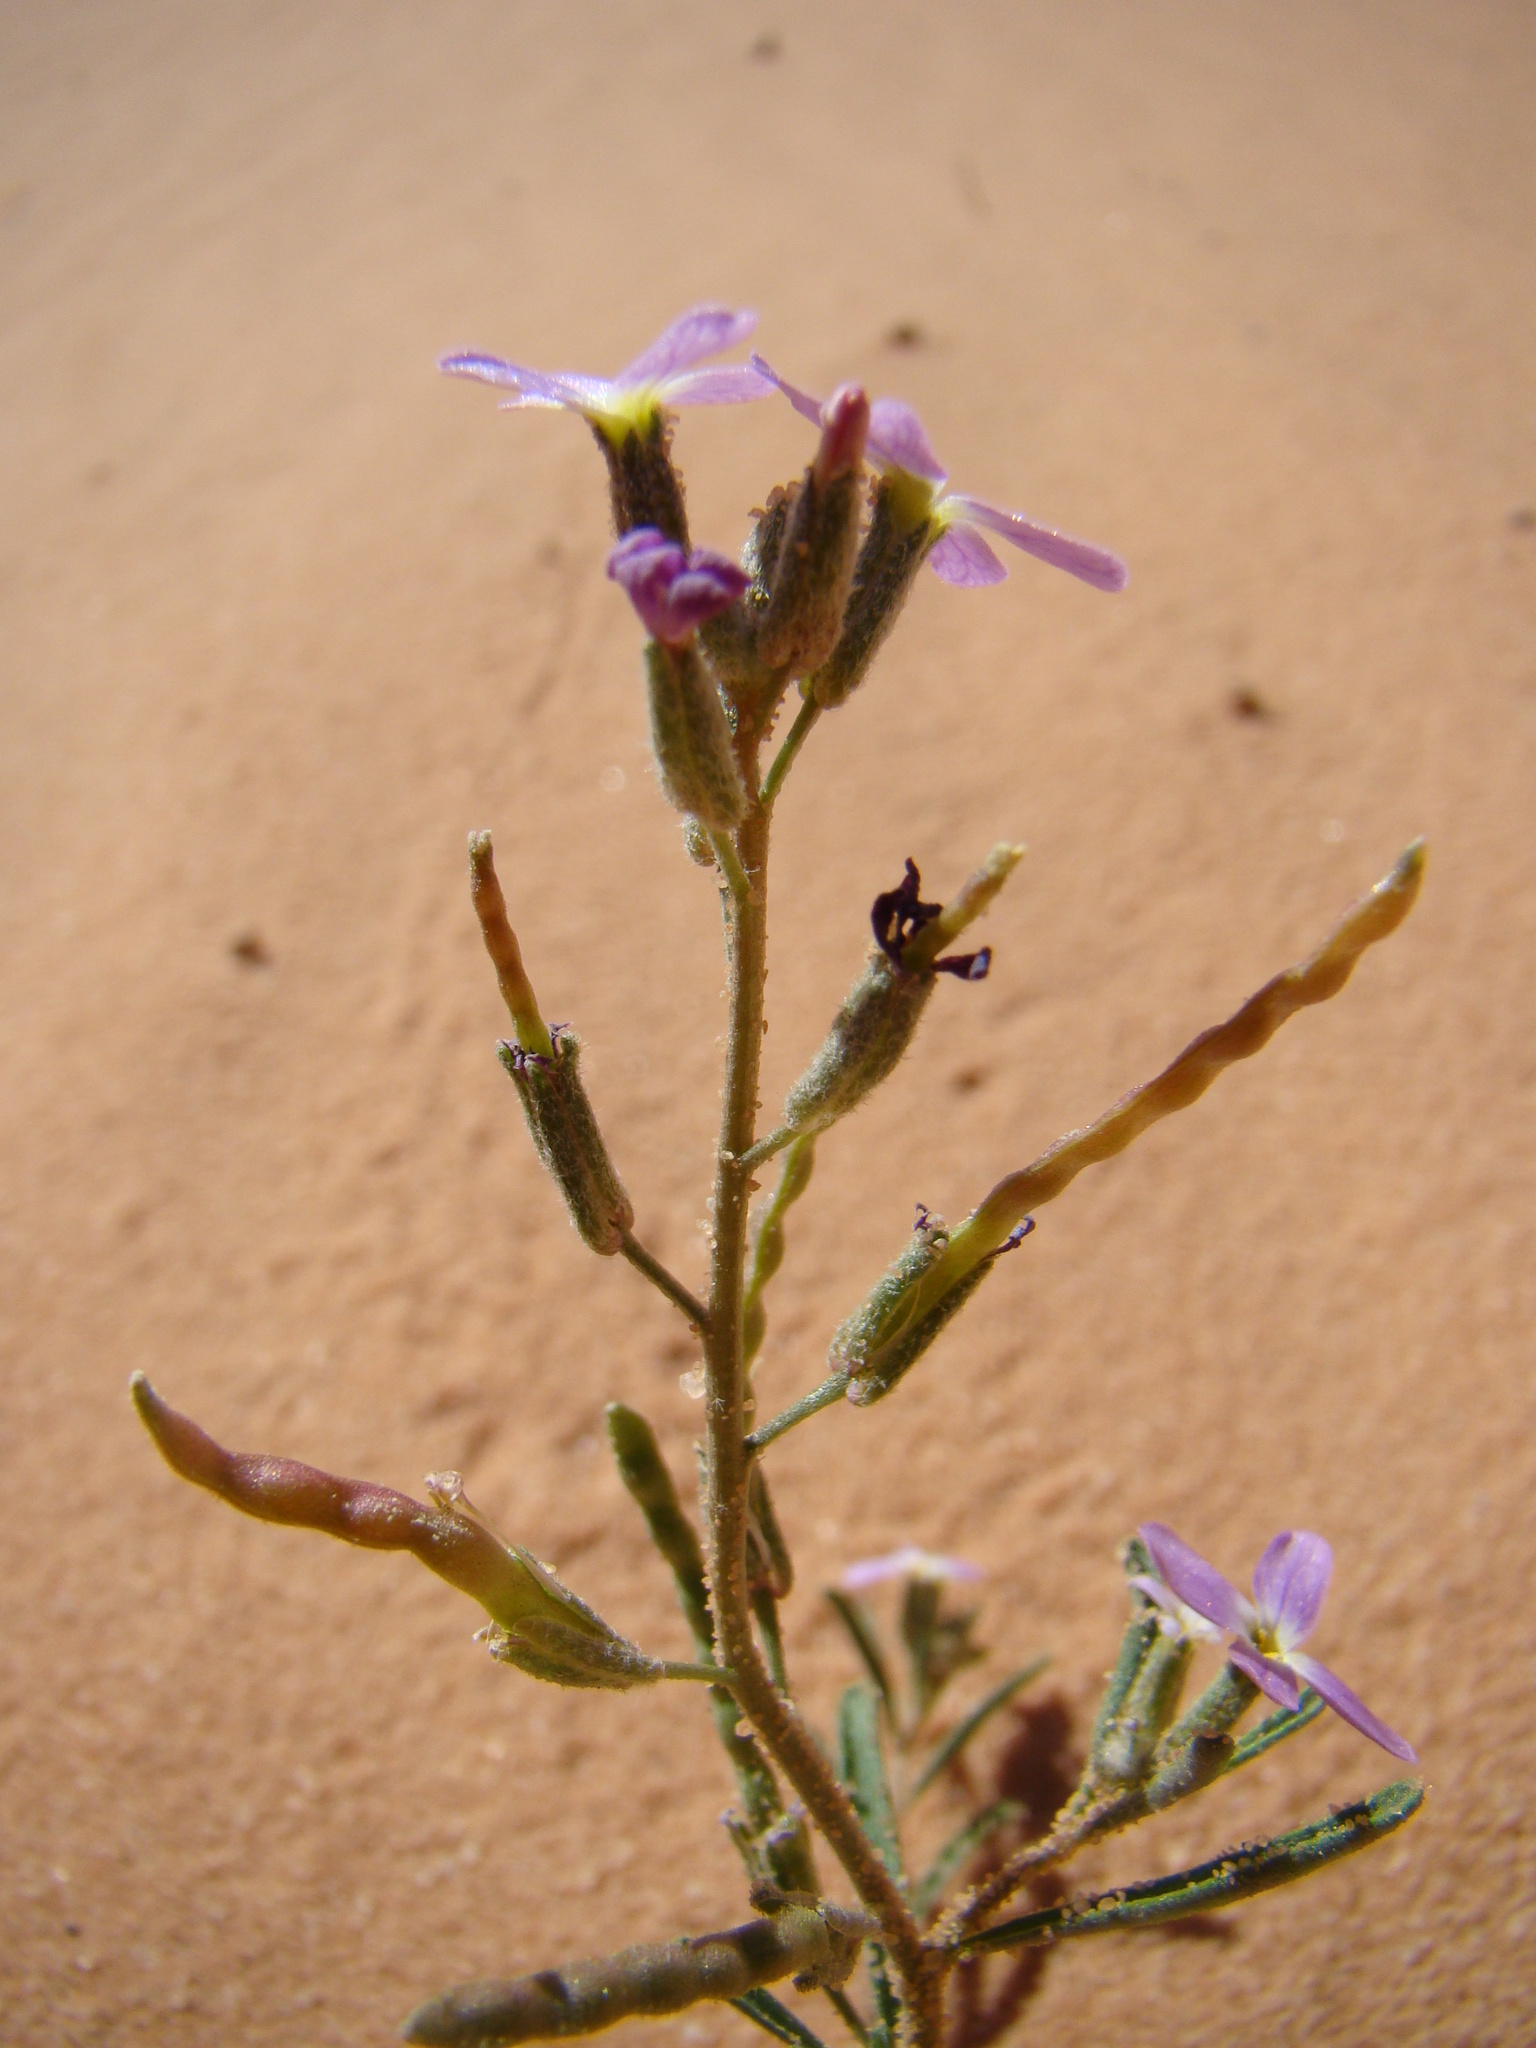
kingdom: Plantae
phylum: Tracheophyta
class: Magnoliopsida
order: Brassicales
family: Brassicaceae
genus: Eremobium
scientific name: Eremobium aegyptiacum
